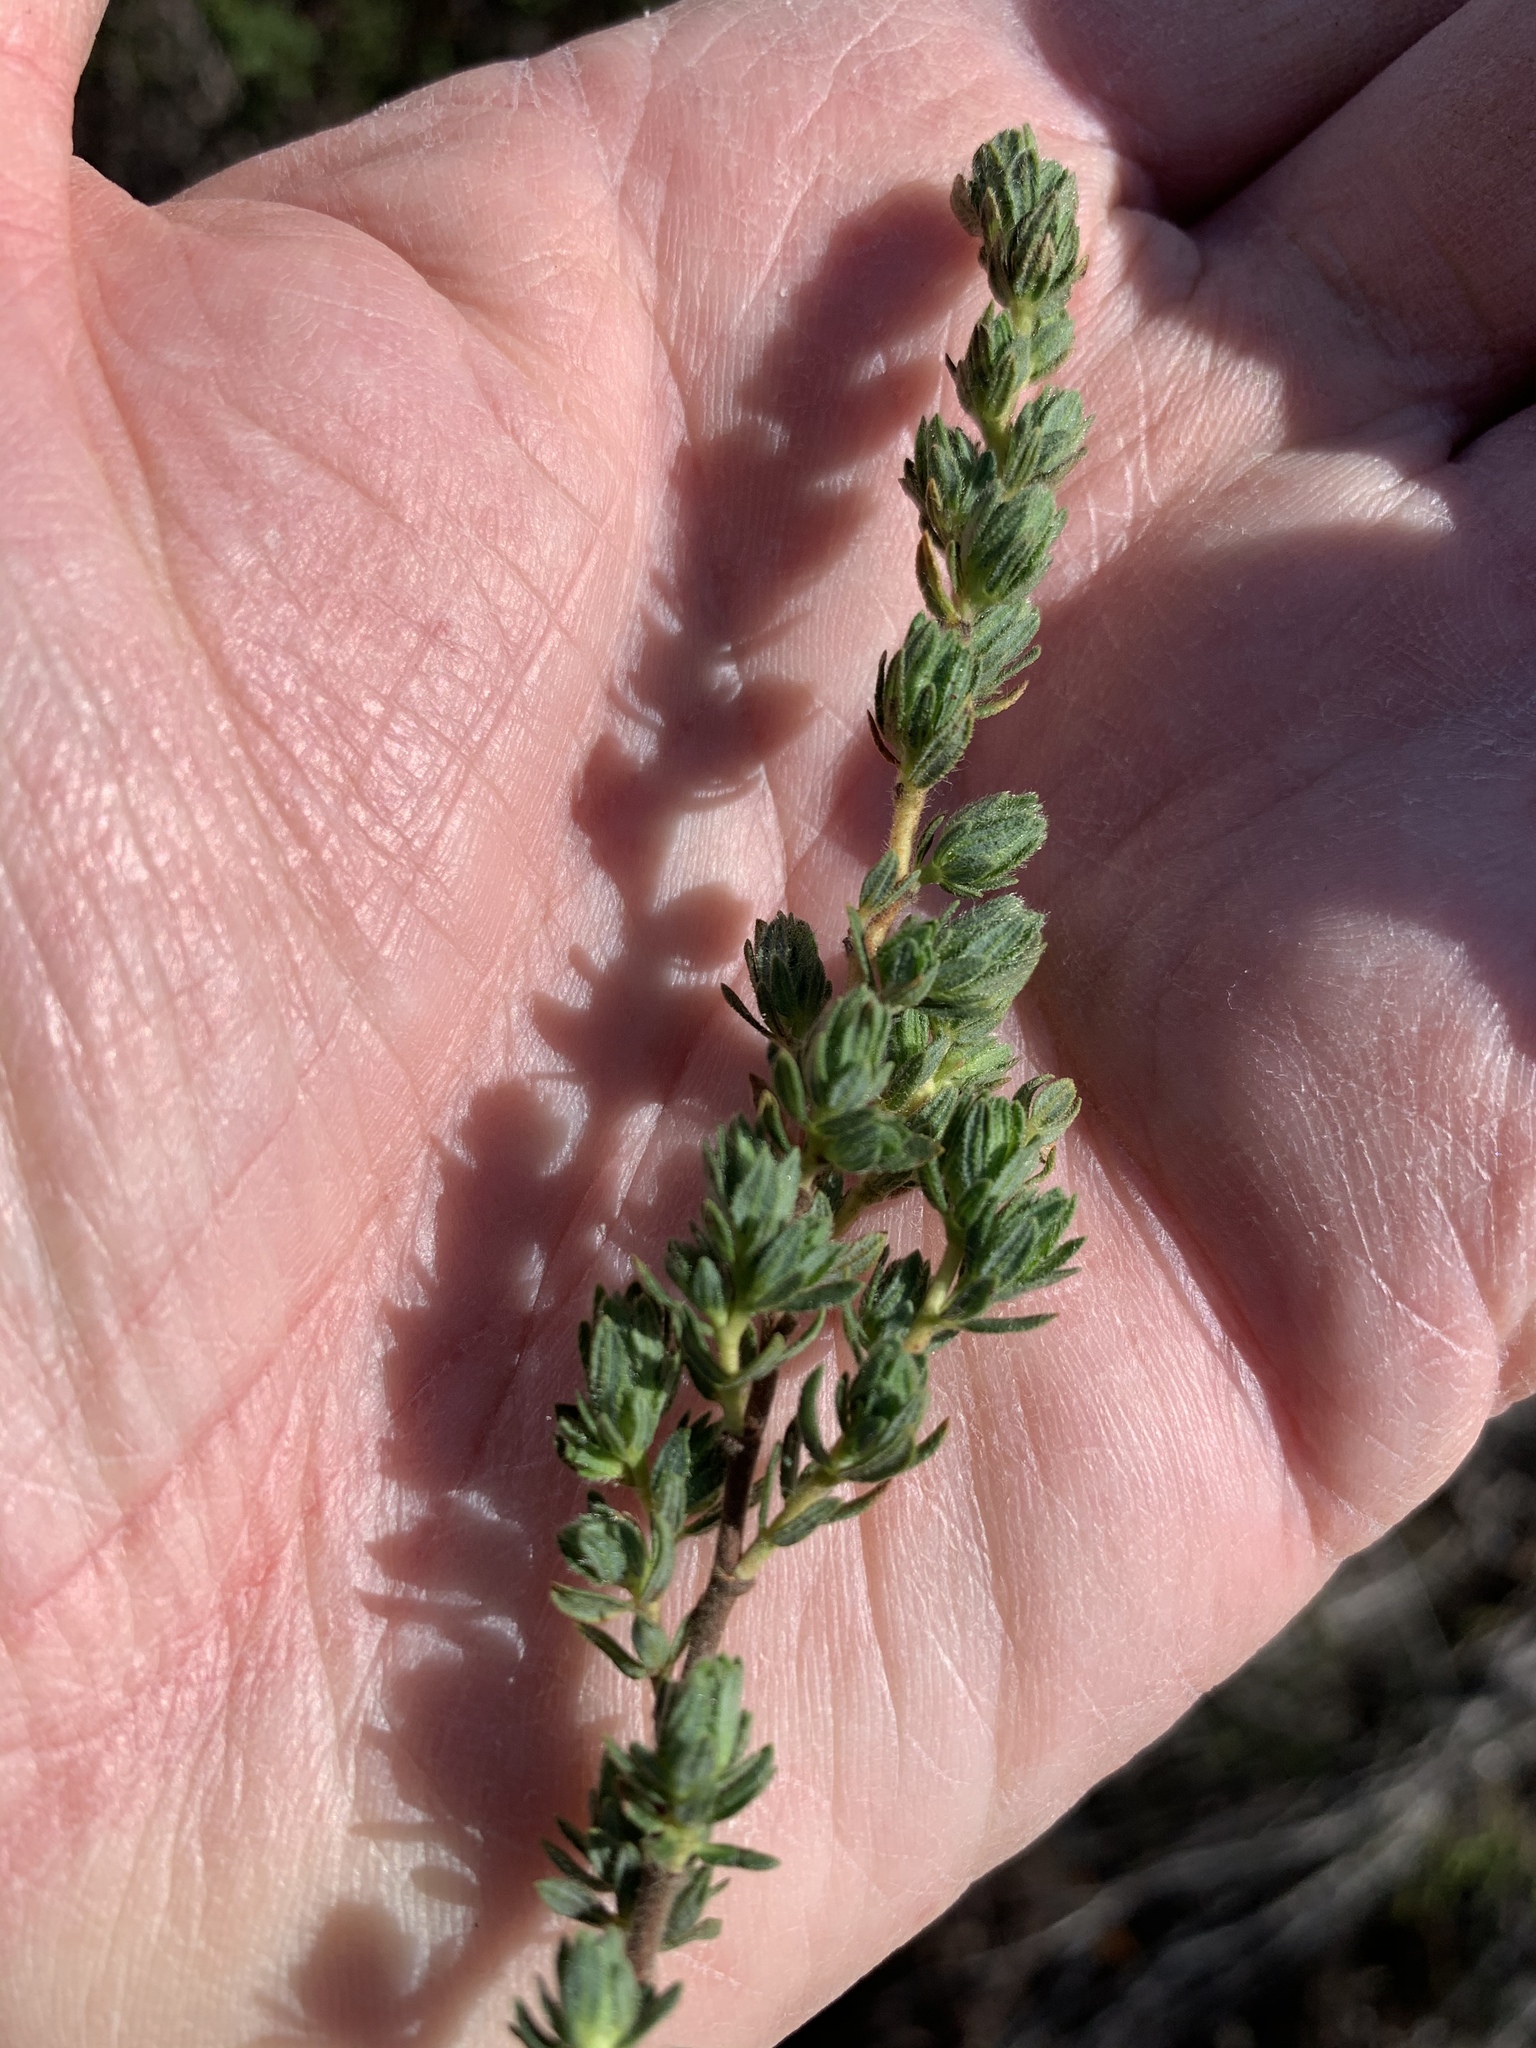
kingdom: Plantae
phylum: Tracheophyta
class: Magnoliopsida
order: Rosales
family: Rosaceae
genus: Cliffortia
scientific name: Cliffortia polygonifolia
